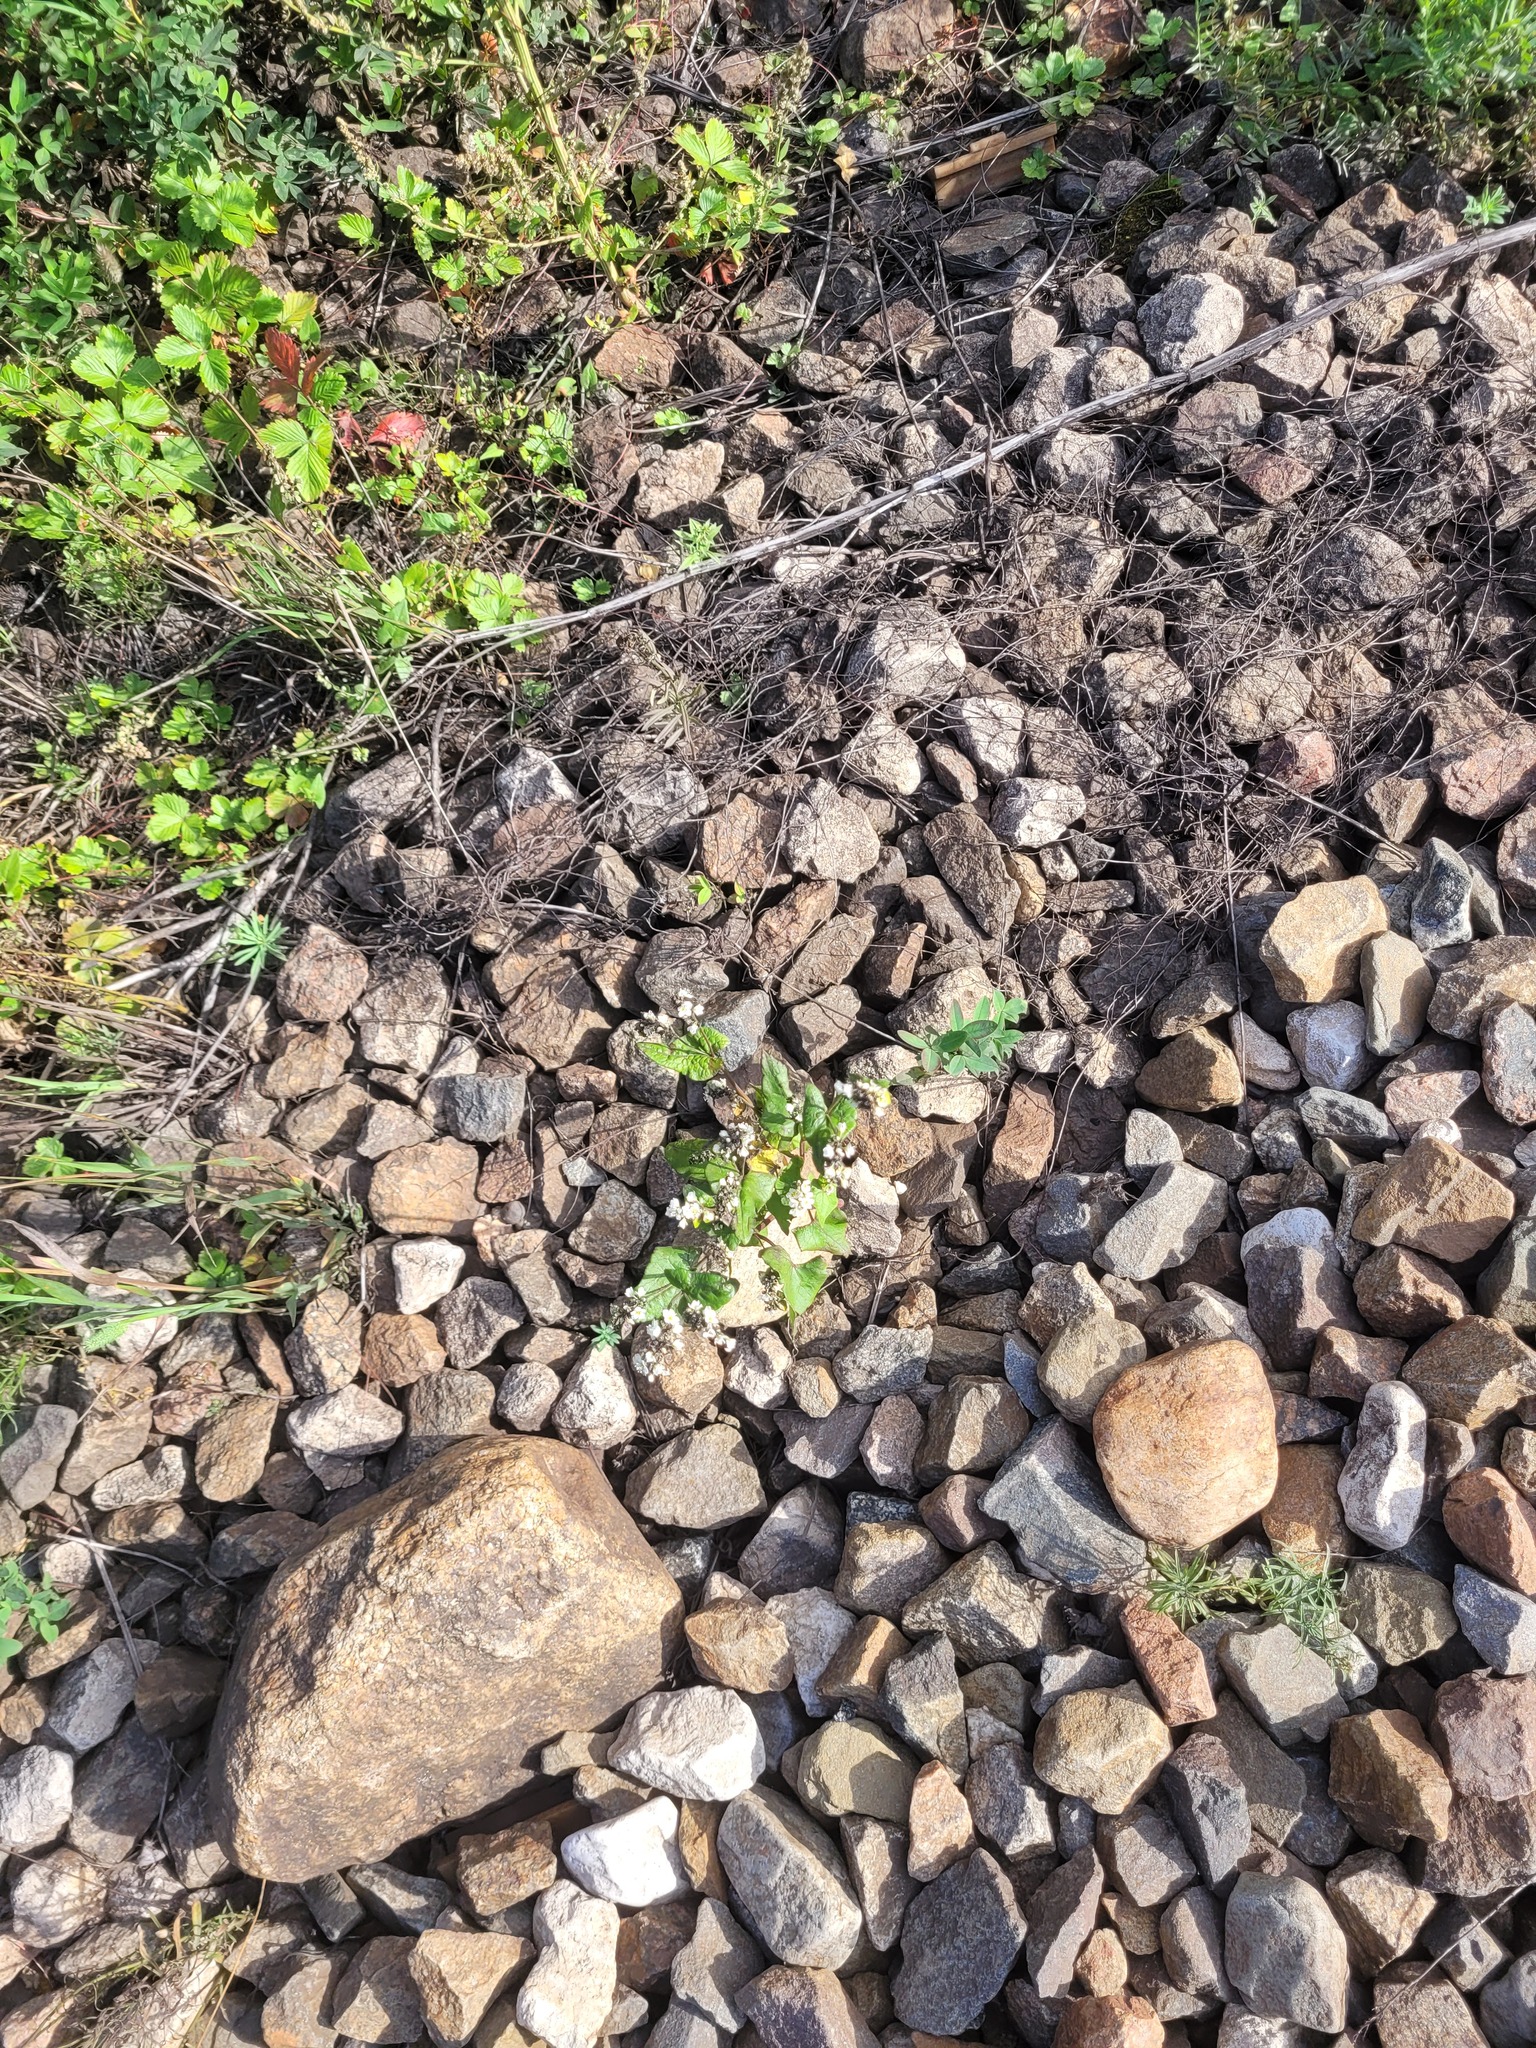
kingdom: Plantae
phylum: Tracheophyta
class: Magnoliopsida
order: Caryophyllales
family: Polygonaceae
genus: Fagopyrum
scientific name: Fagopyrum esculentum
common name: Buckwheat
